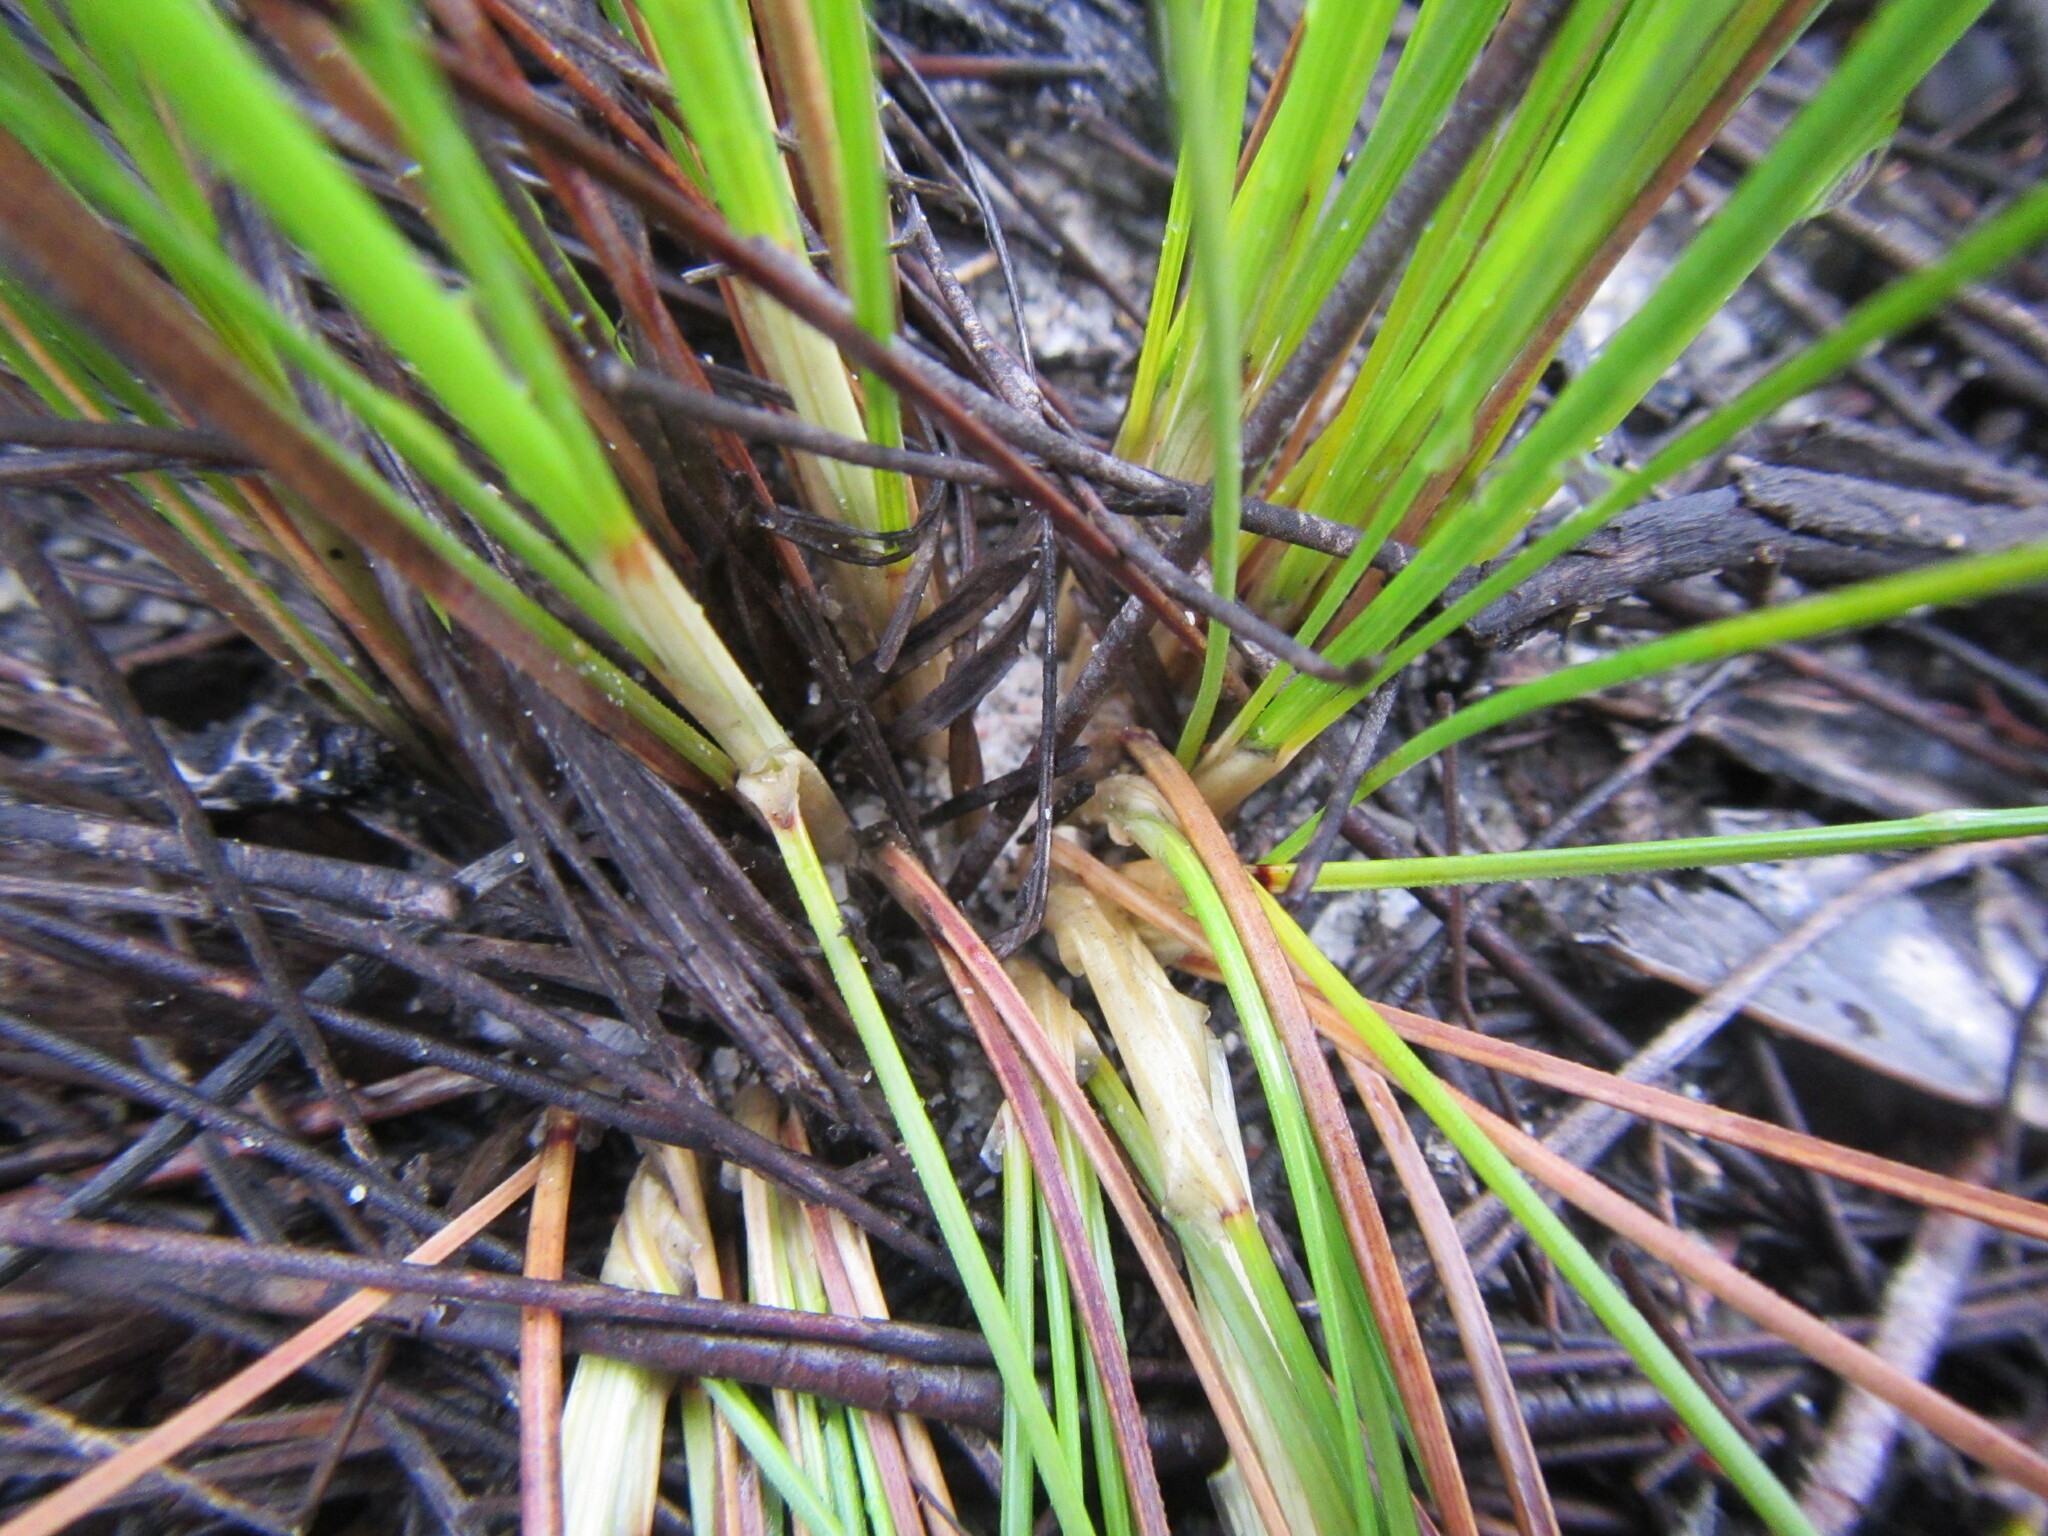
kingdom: Plantae
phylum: Tracheophyta
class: Liliopsida
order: Poales
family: Cyperaceae
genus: Schoenus
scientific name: Schoenus compar
